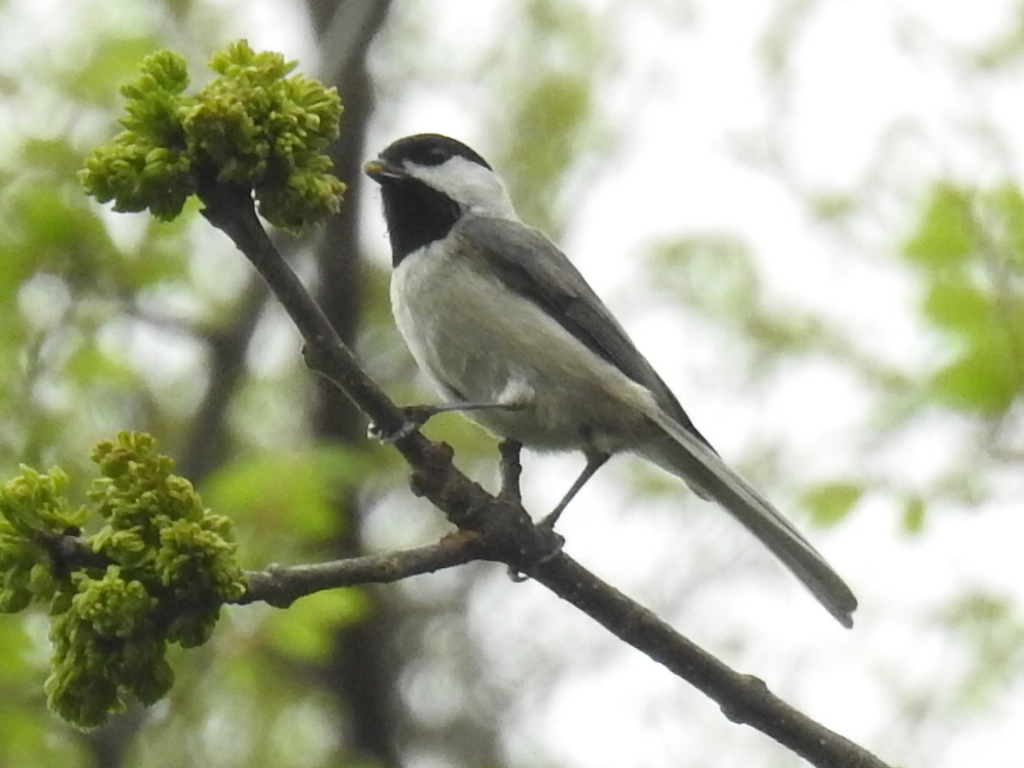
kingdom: Animalia
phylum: Chordata
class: Aves
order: Passeriformes
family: Paridae
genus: Poecile
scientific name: Poecile carolinensis
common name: Carolina chickadee
